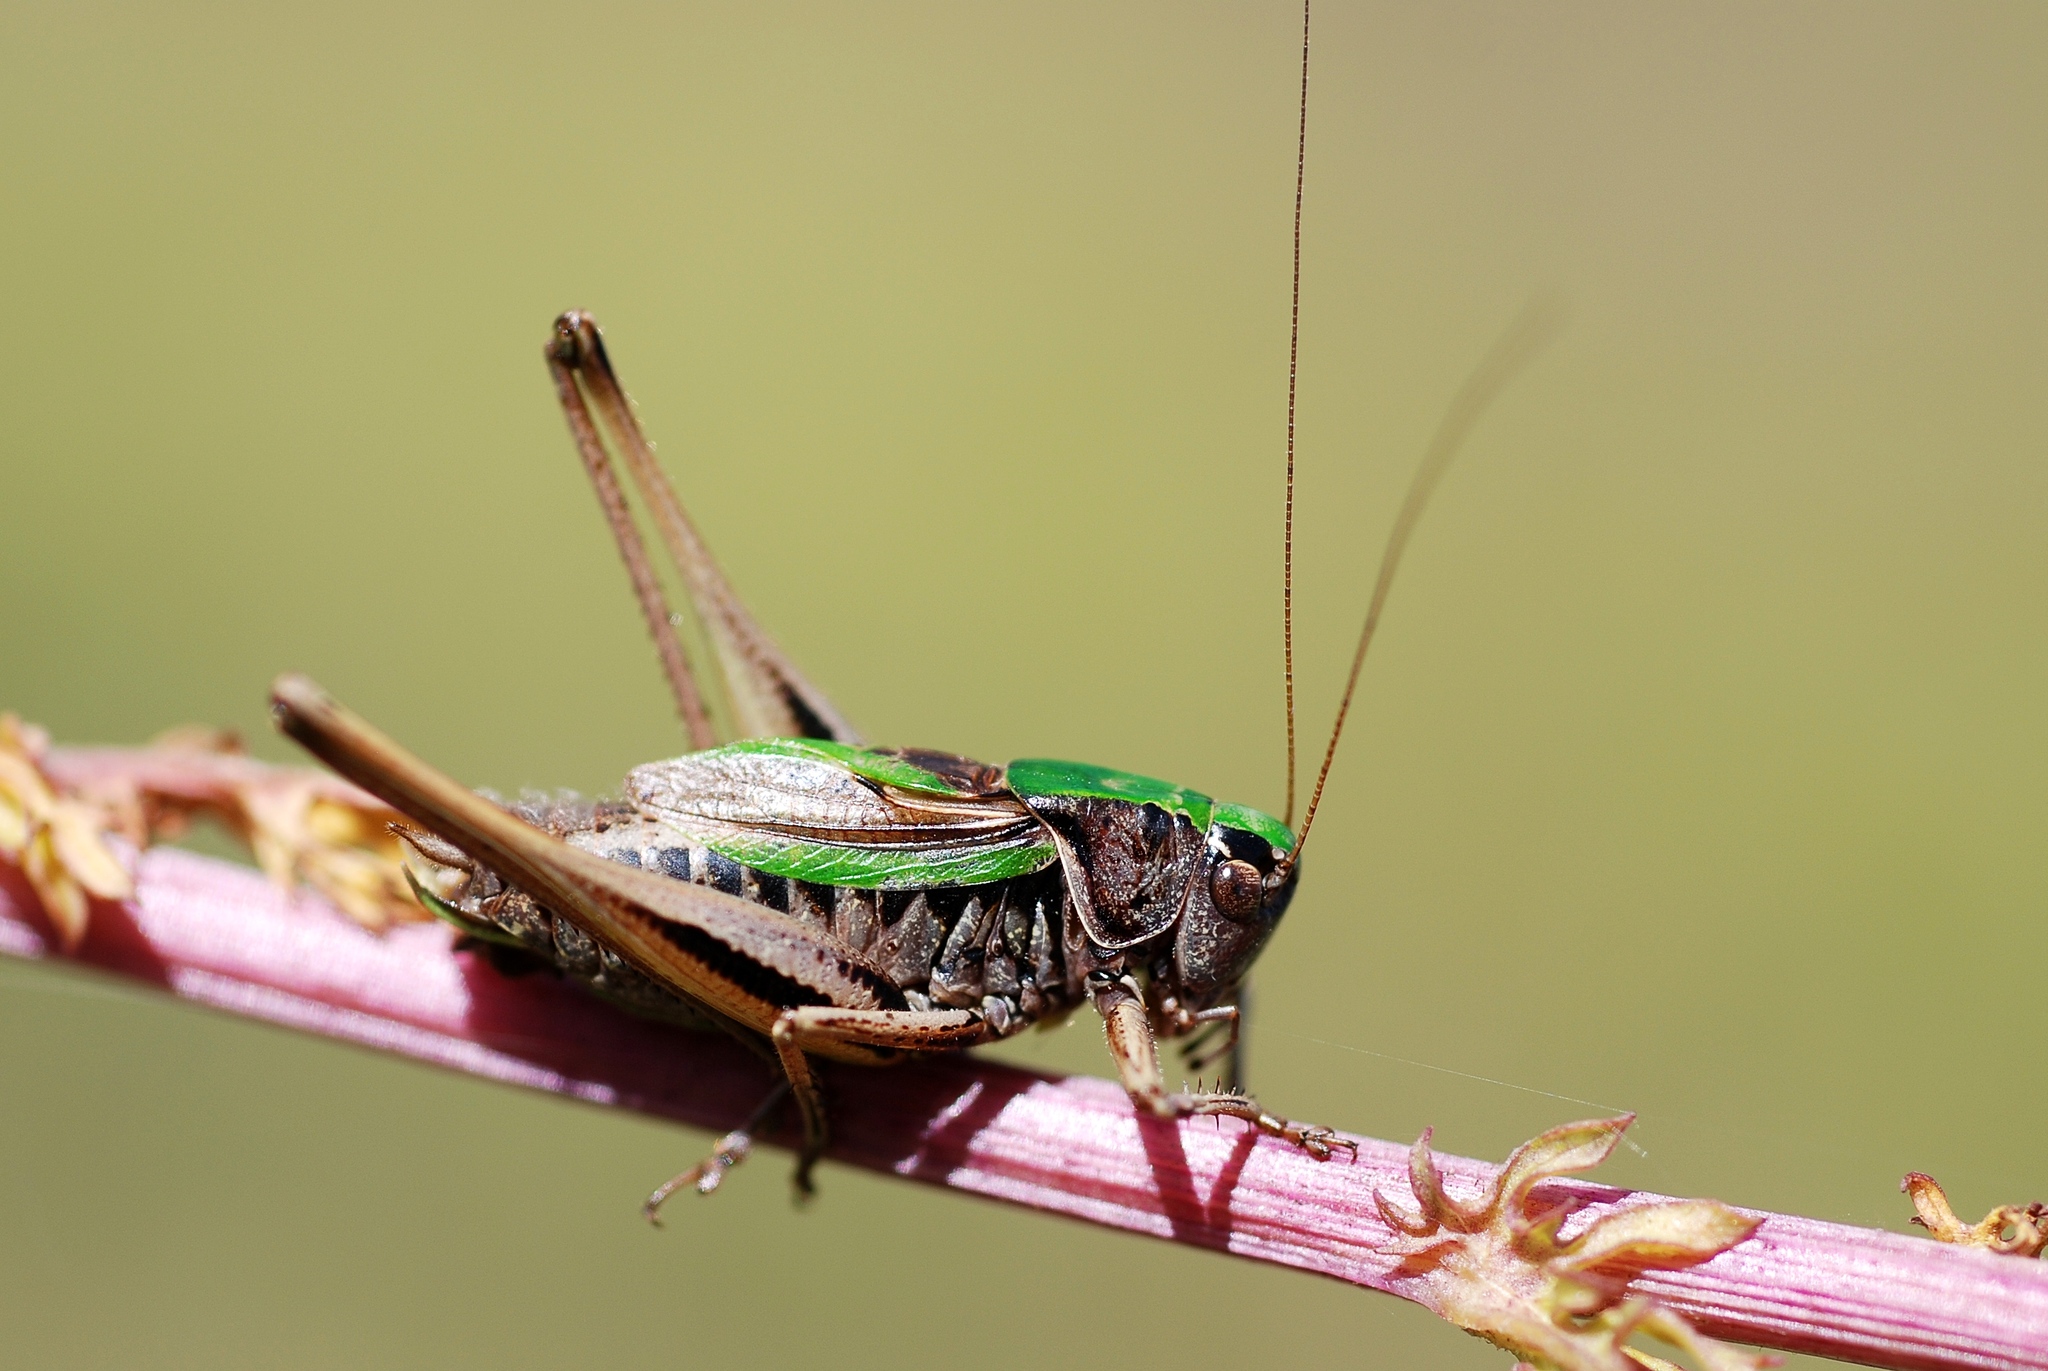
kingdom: Animalia
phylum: Arthropoda
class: Insecta
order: Orthoptera
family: Tettigoniidae
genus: Metrioptera
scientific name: Metrioptera brachyptera
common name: Bog bush-cricket
